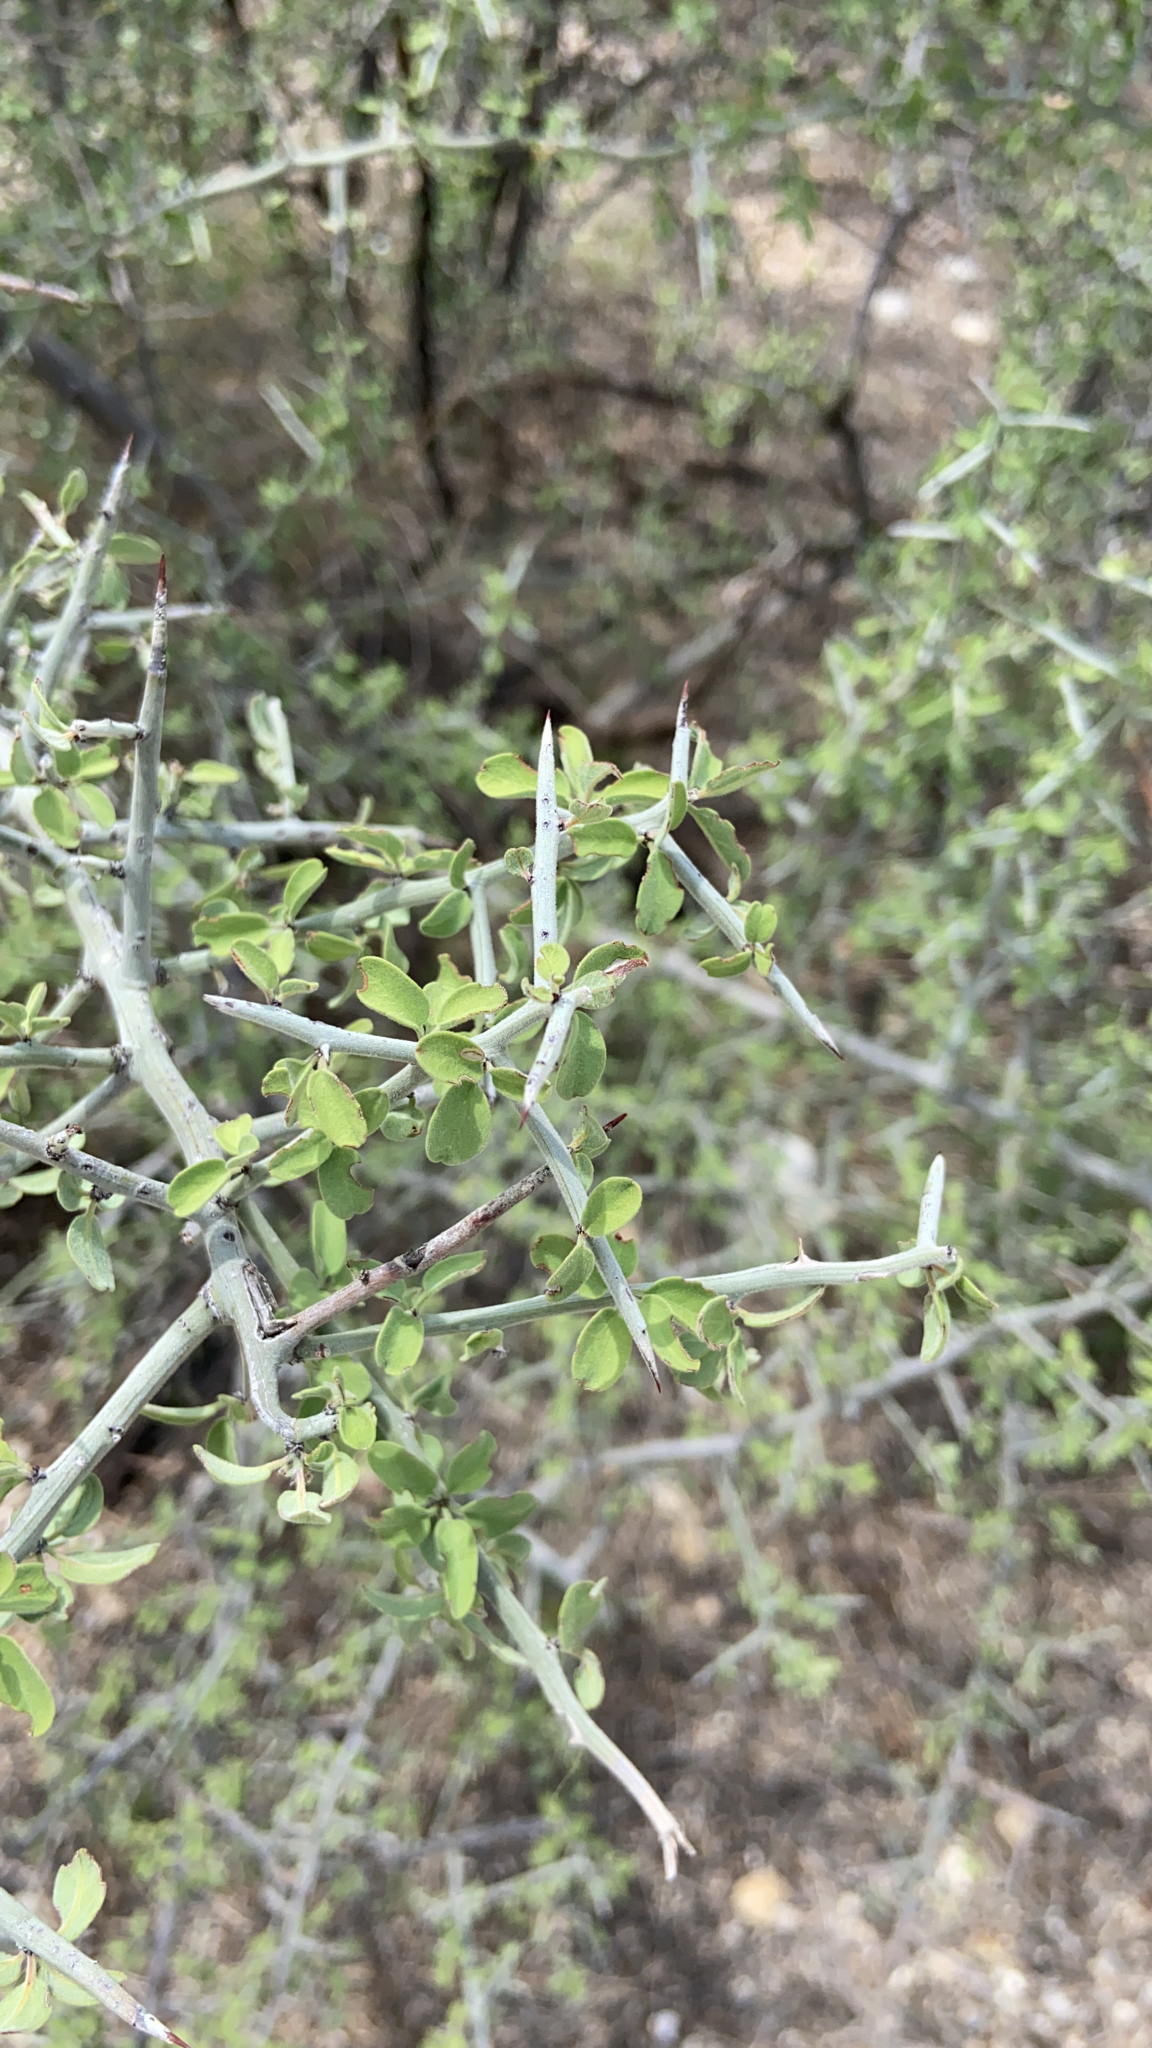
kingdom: Plantae
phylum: Tracheophyta
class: Magnoliopsida
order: Rosales
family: Rhamnaceae
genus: Sarcomphalus
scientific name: Sarcomphalus obtusifolius
